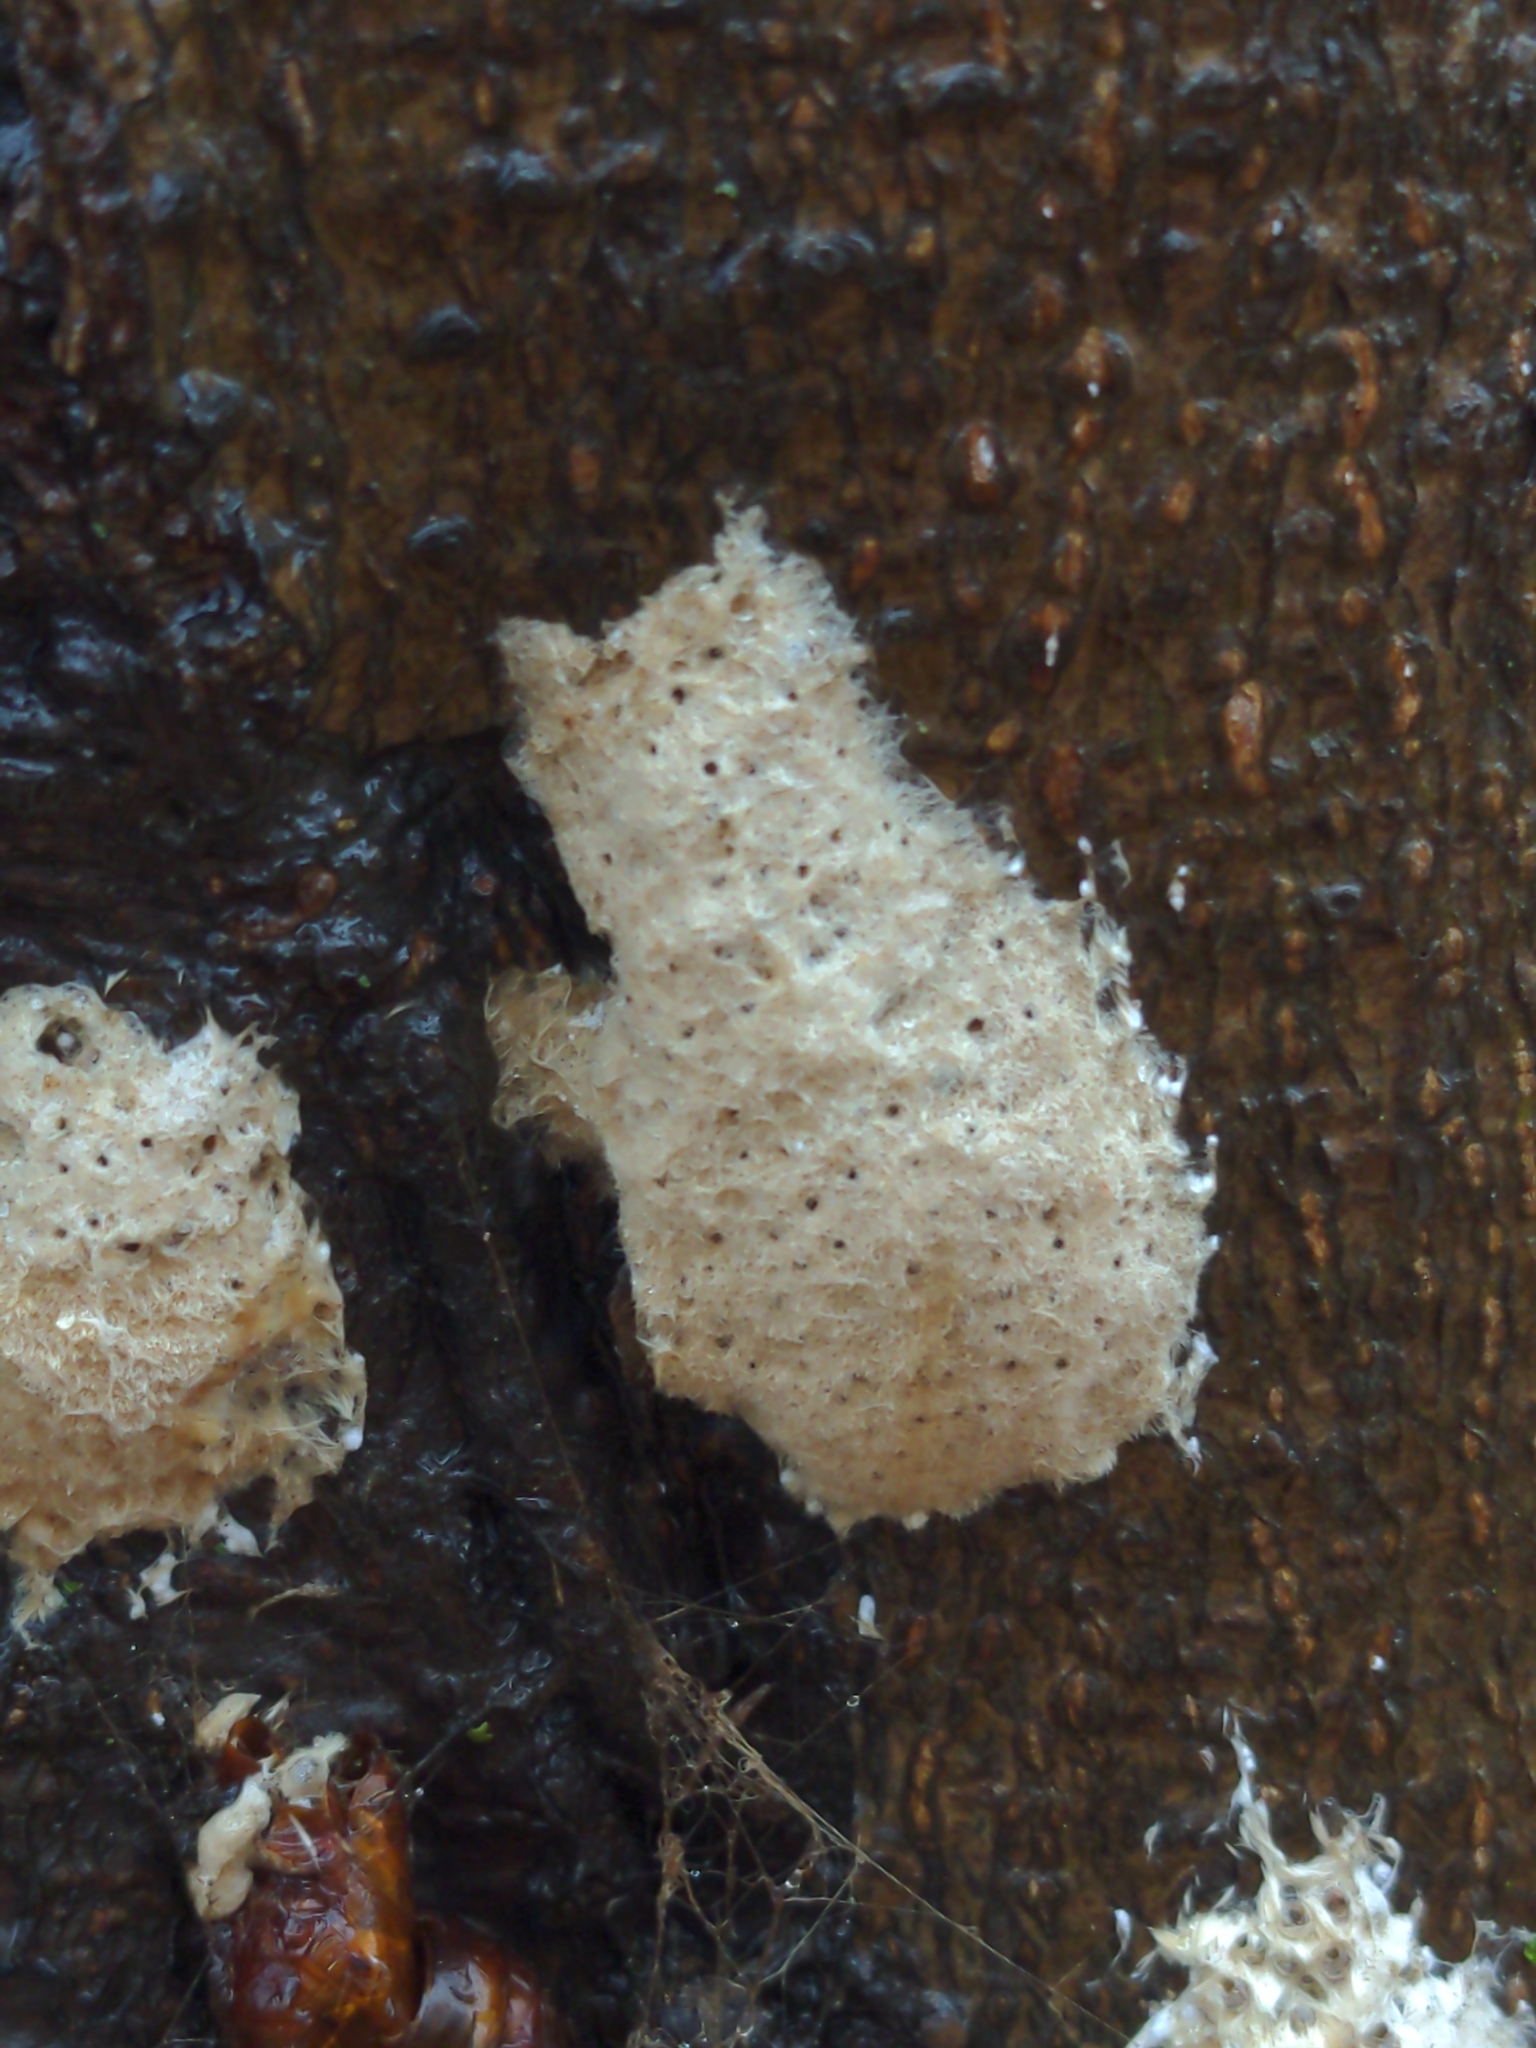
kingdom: Animalia
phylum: Arthropoda
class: Insecta
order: Lepidoptera
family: Erebidae
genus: Lymantria
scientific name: Lymantria dispar
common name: Gypsy moth
